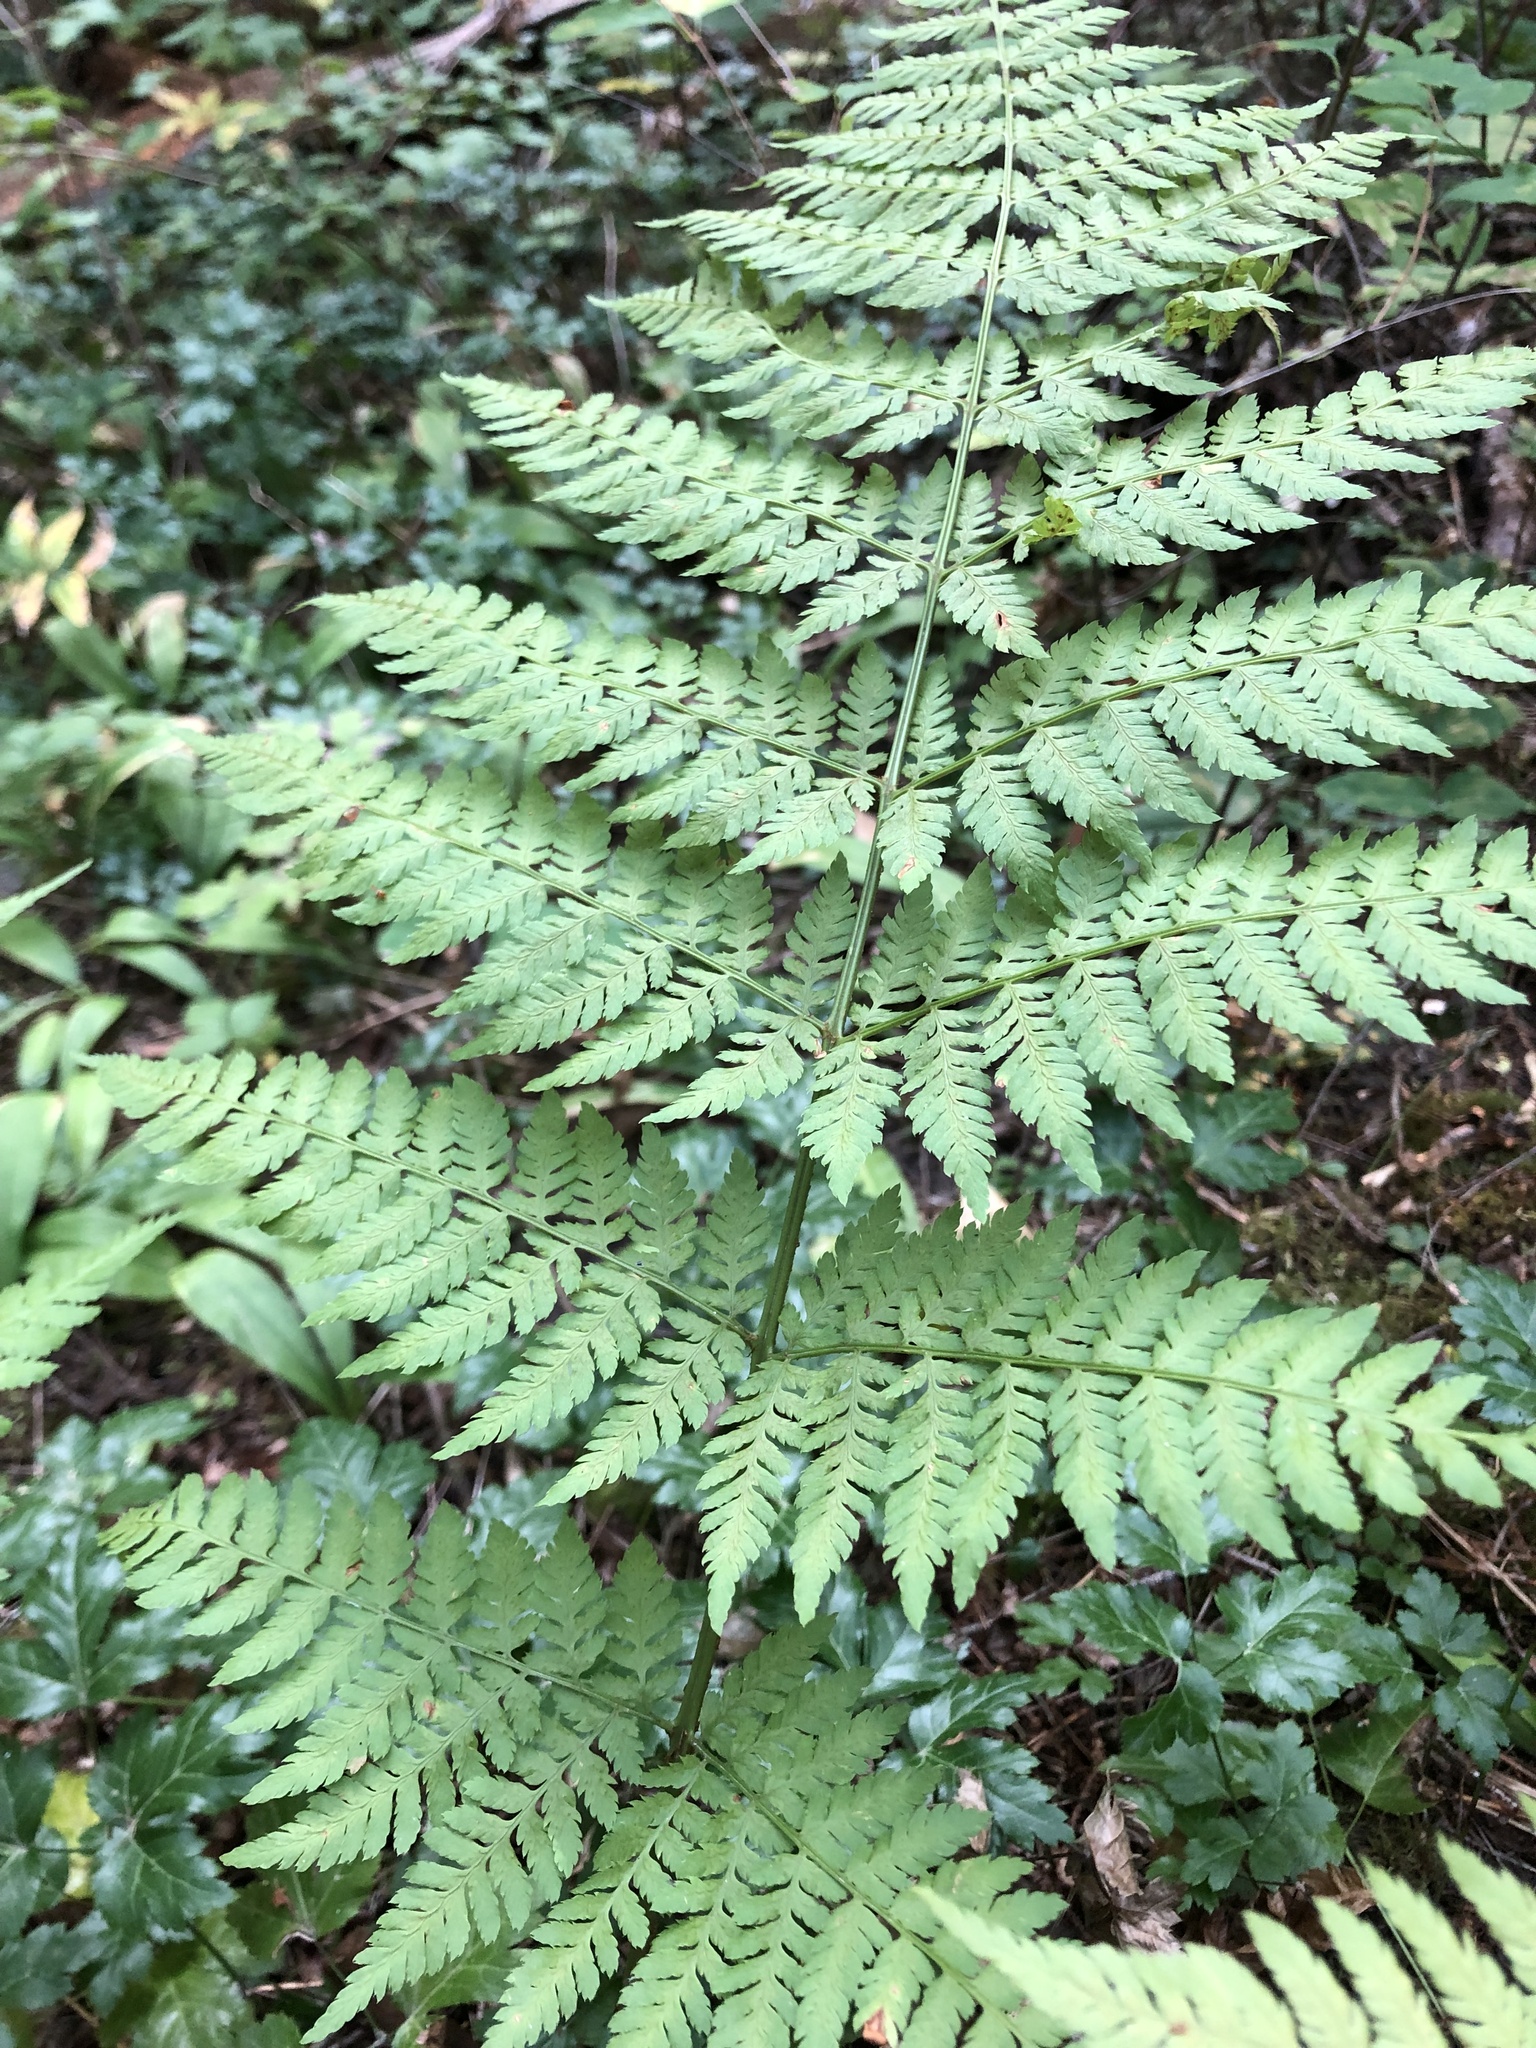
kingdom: Plantae
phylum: Tracheophyta
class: Polypodiopsida
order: Polypodiales
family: Dryopteridaceae
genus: Dryopteris
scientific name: Dryopteris expansa
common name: Northern buckler fern
